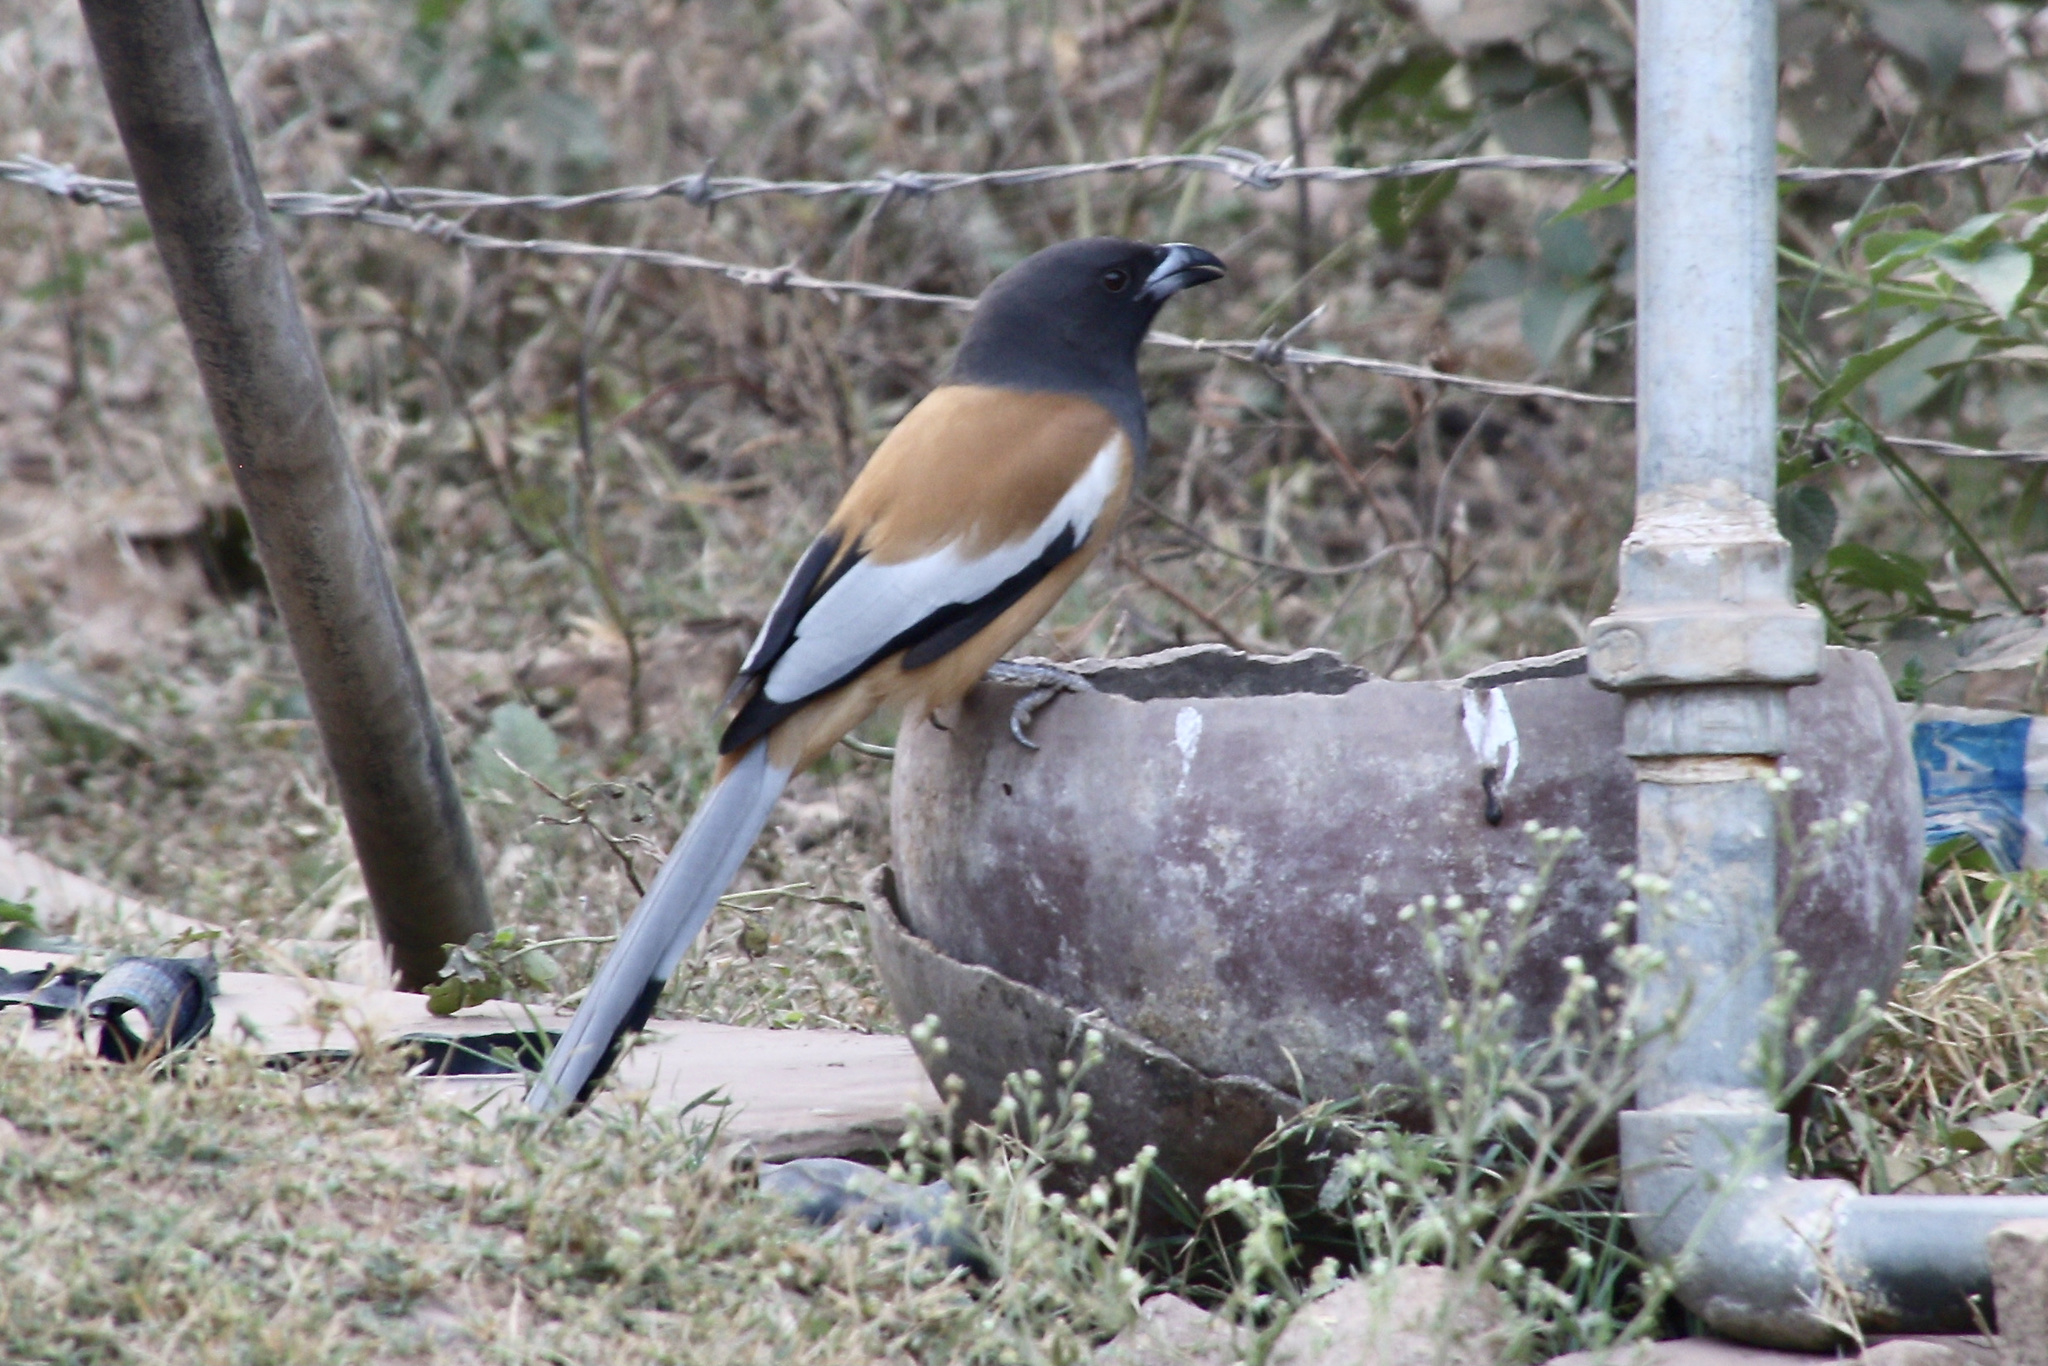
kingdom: Animalia
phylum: Chordata
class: Aves
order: Passeriformes
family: Corvidae
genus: Dendrocitta
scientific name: Dendrocitta vagabunda
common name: Rufous treepie
